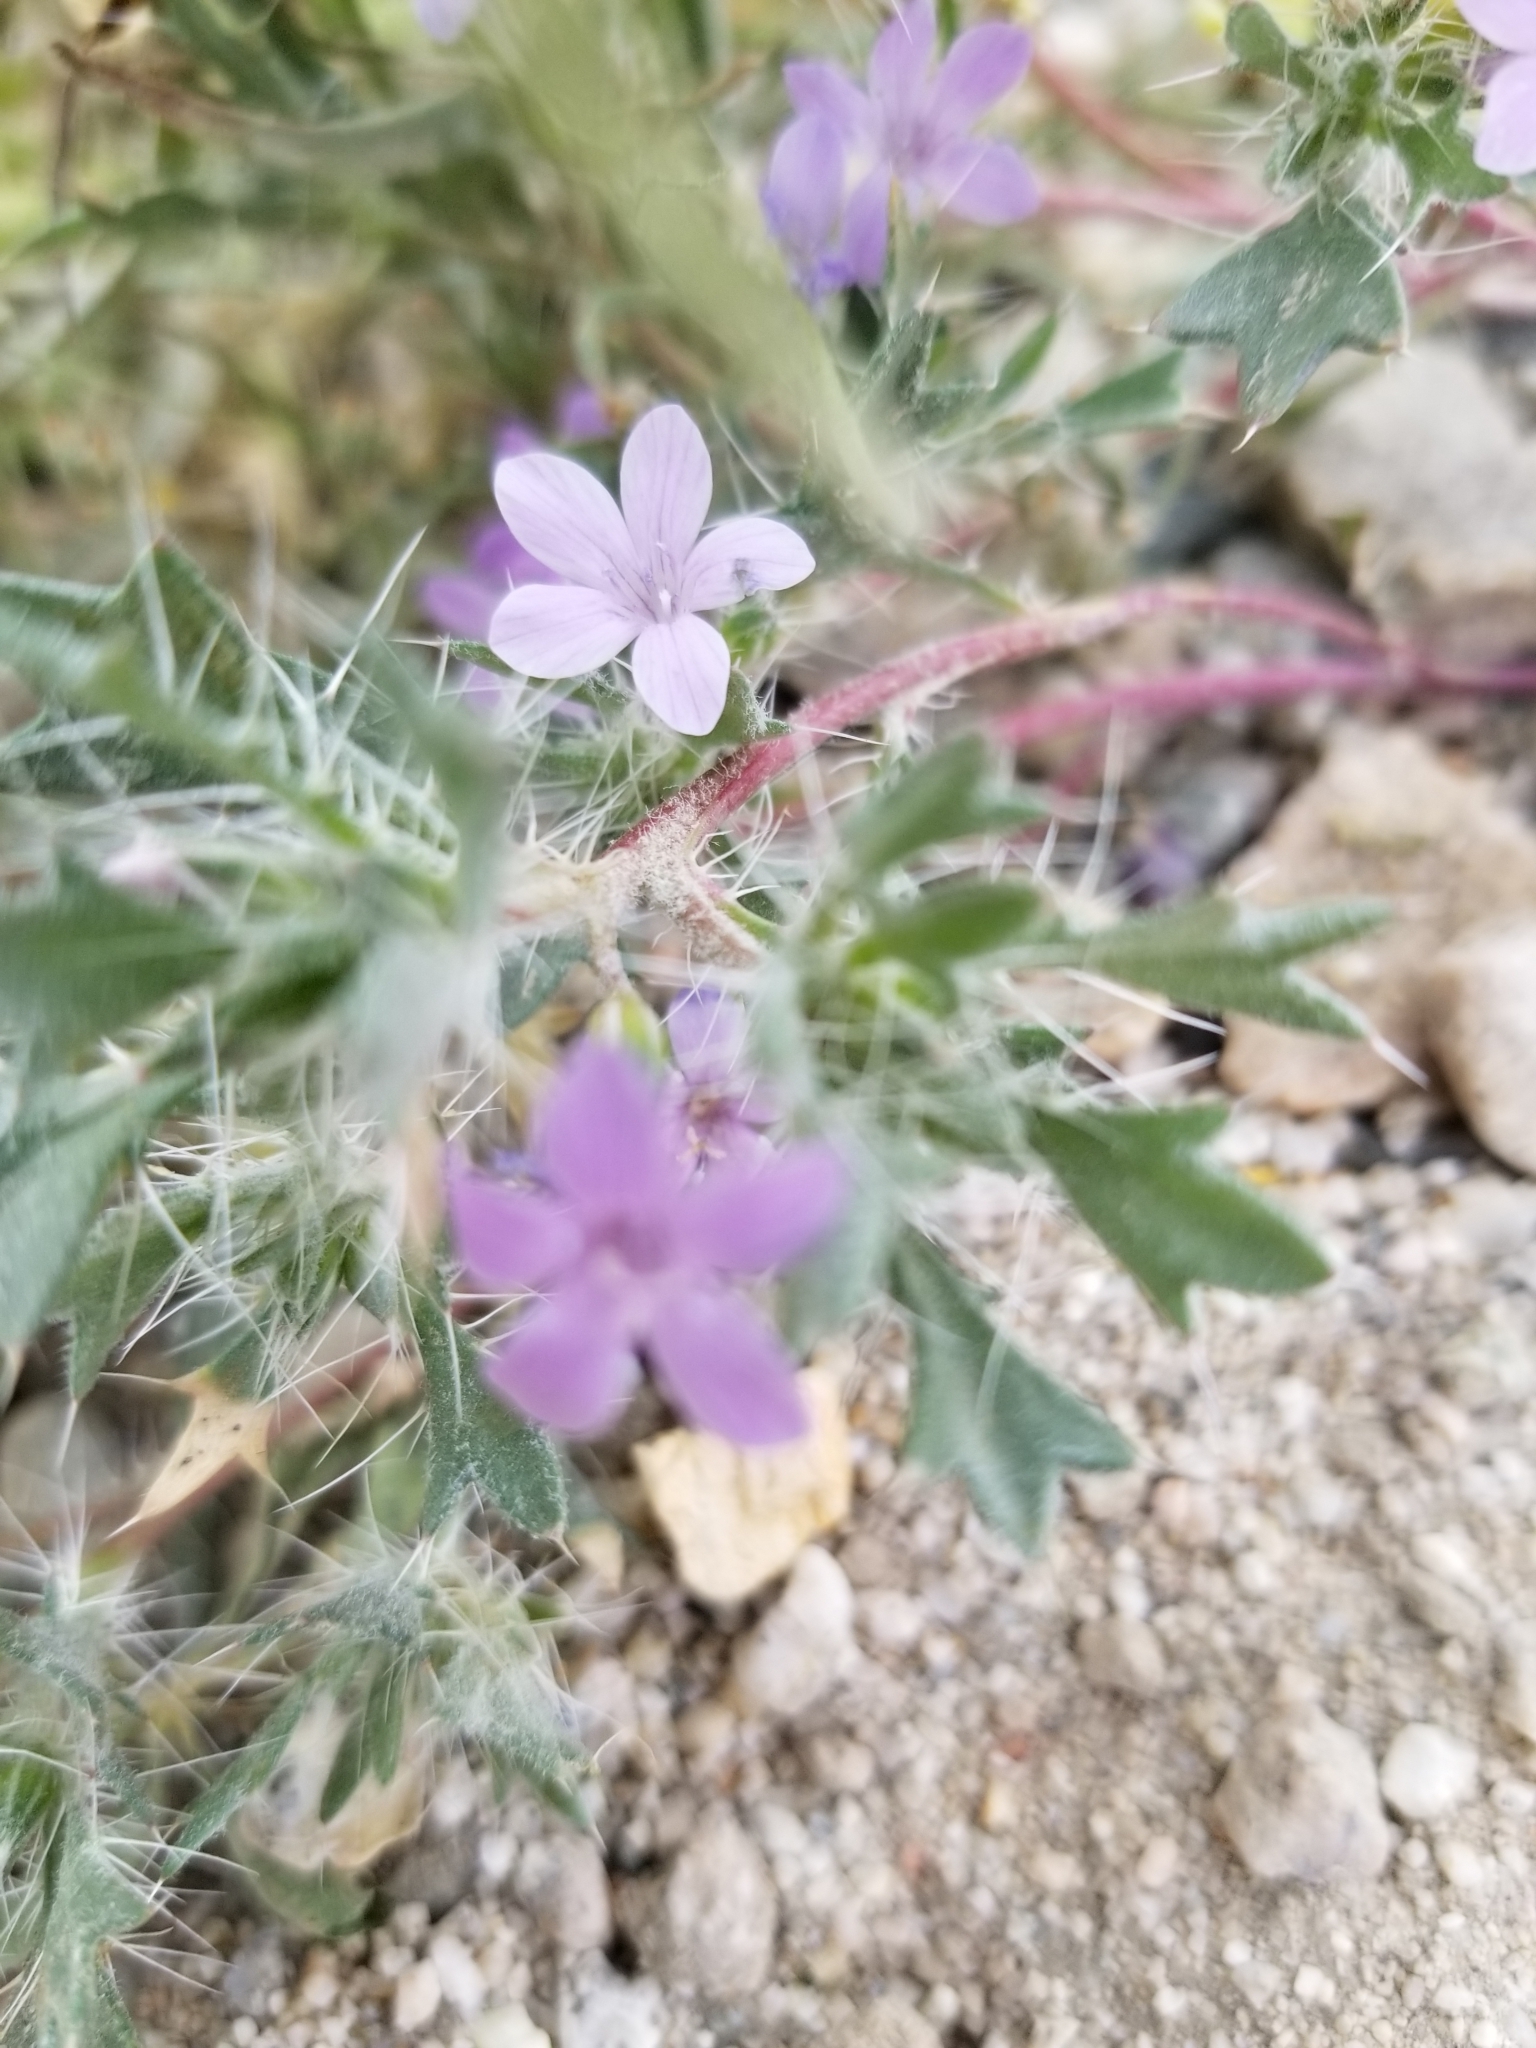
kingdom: Plantae
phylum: Tracheophyta
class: Magnoliopsida
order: Ericales
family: Polemoniaceae
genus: Langloisia
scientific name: Langloisia setosissima
